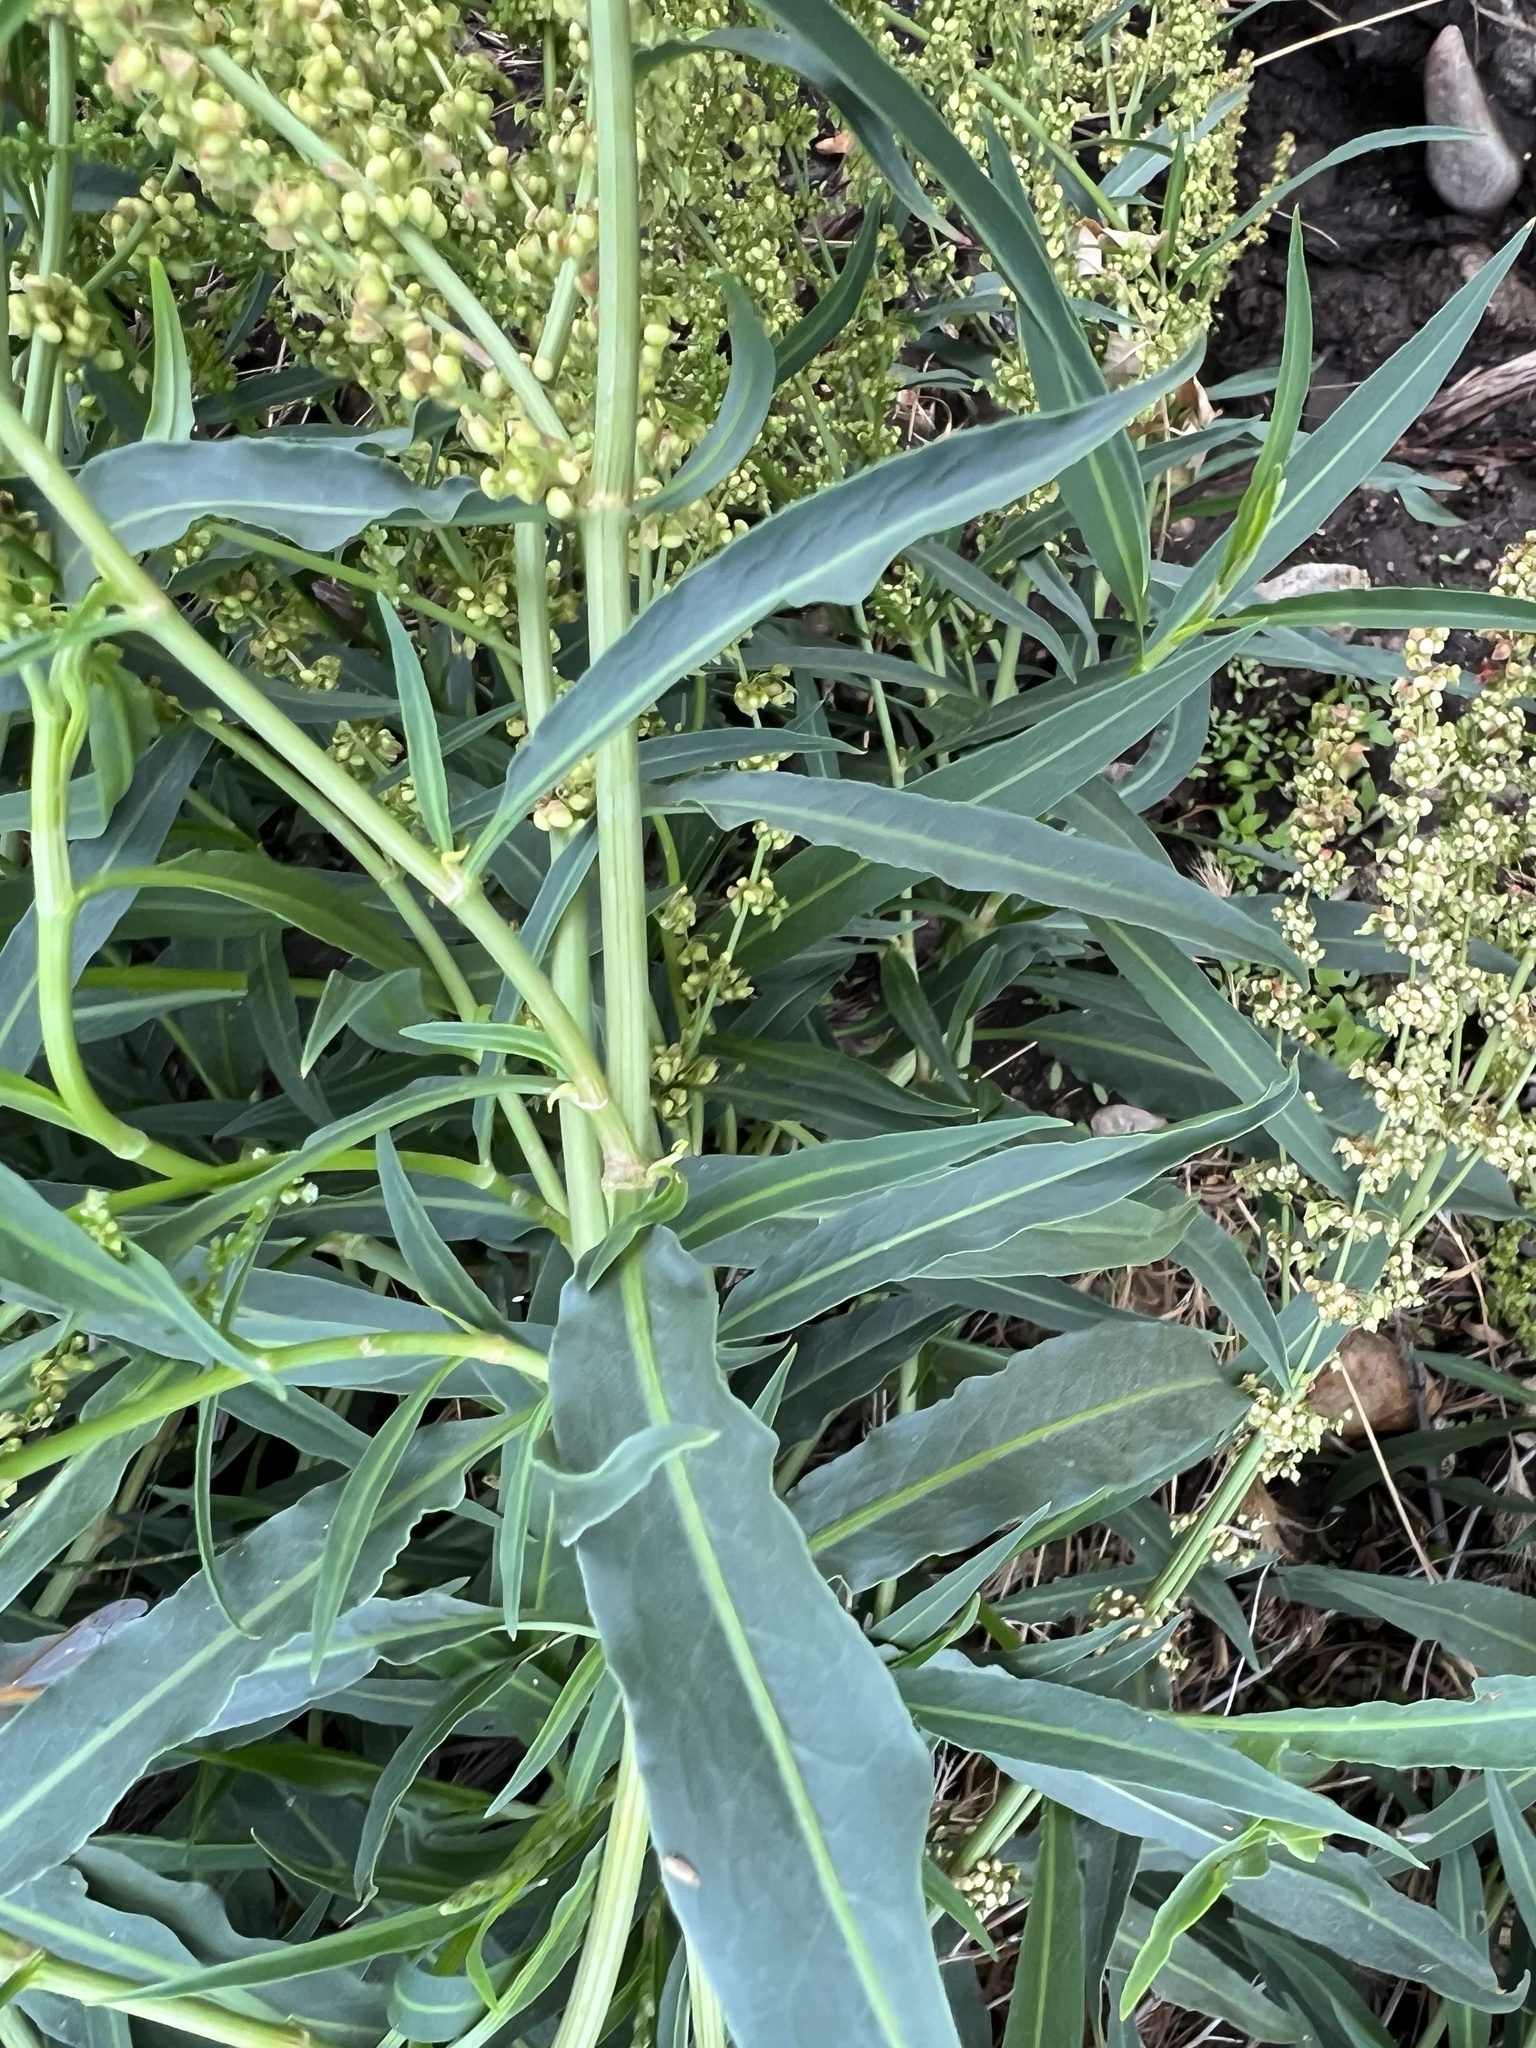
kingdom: Plantae
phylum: Tracheophyta
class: Magnoliopsida
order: Caryophyllales
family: Polygonaceae
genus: Rumex
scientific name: Rumex salicifolius
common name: Willow-leaved dock
